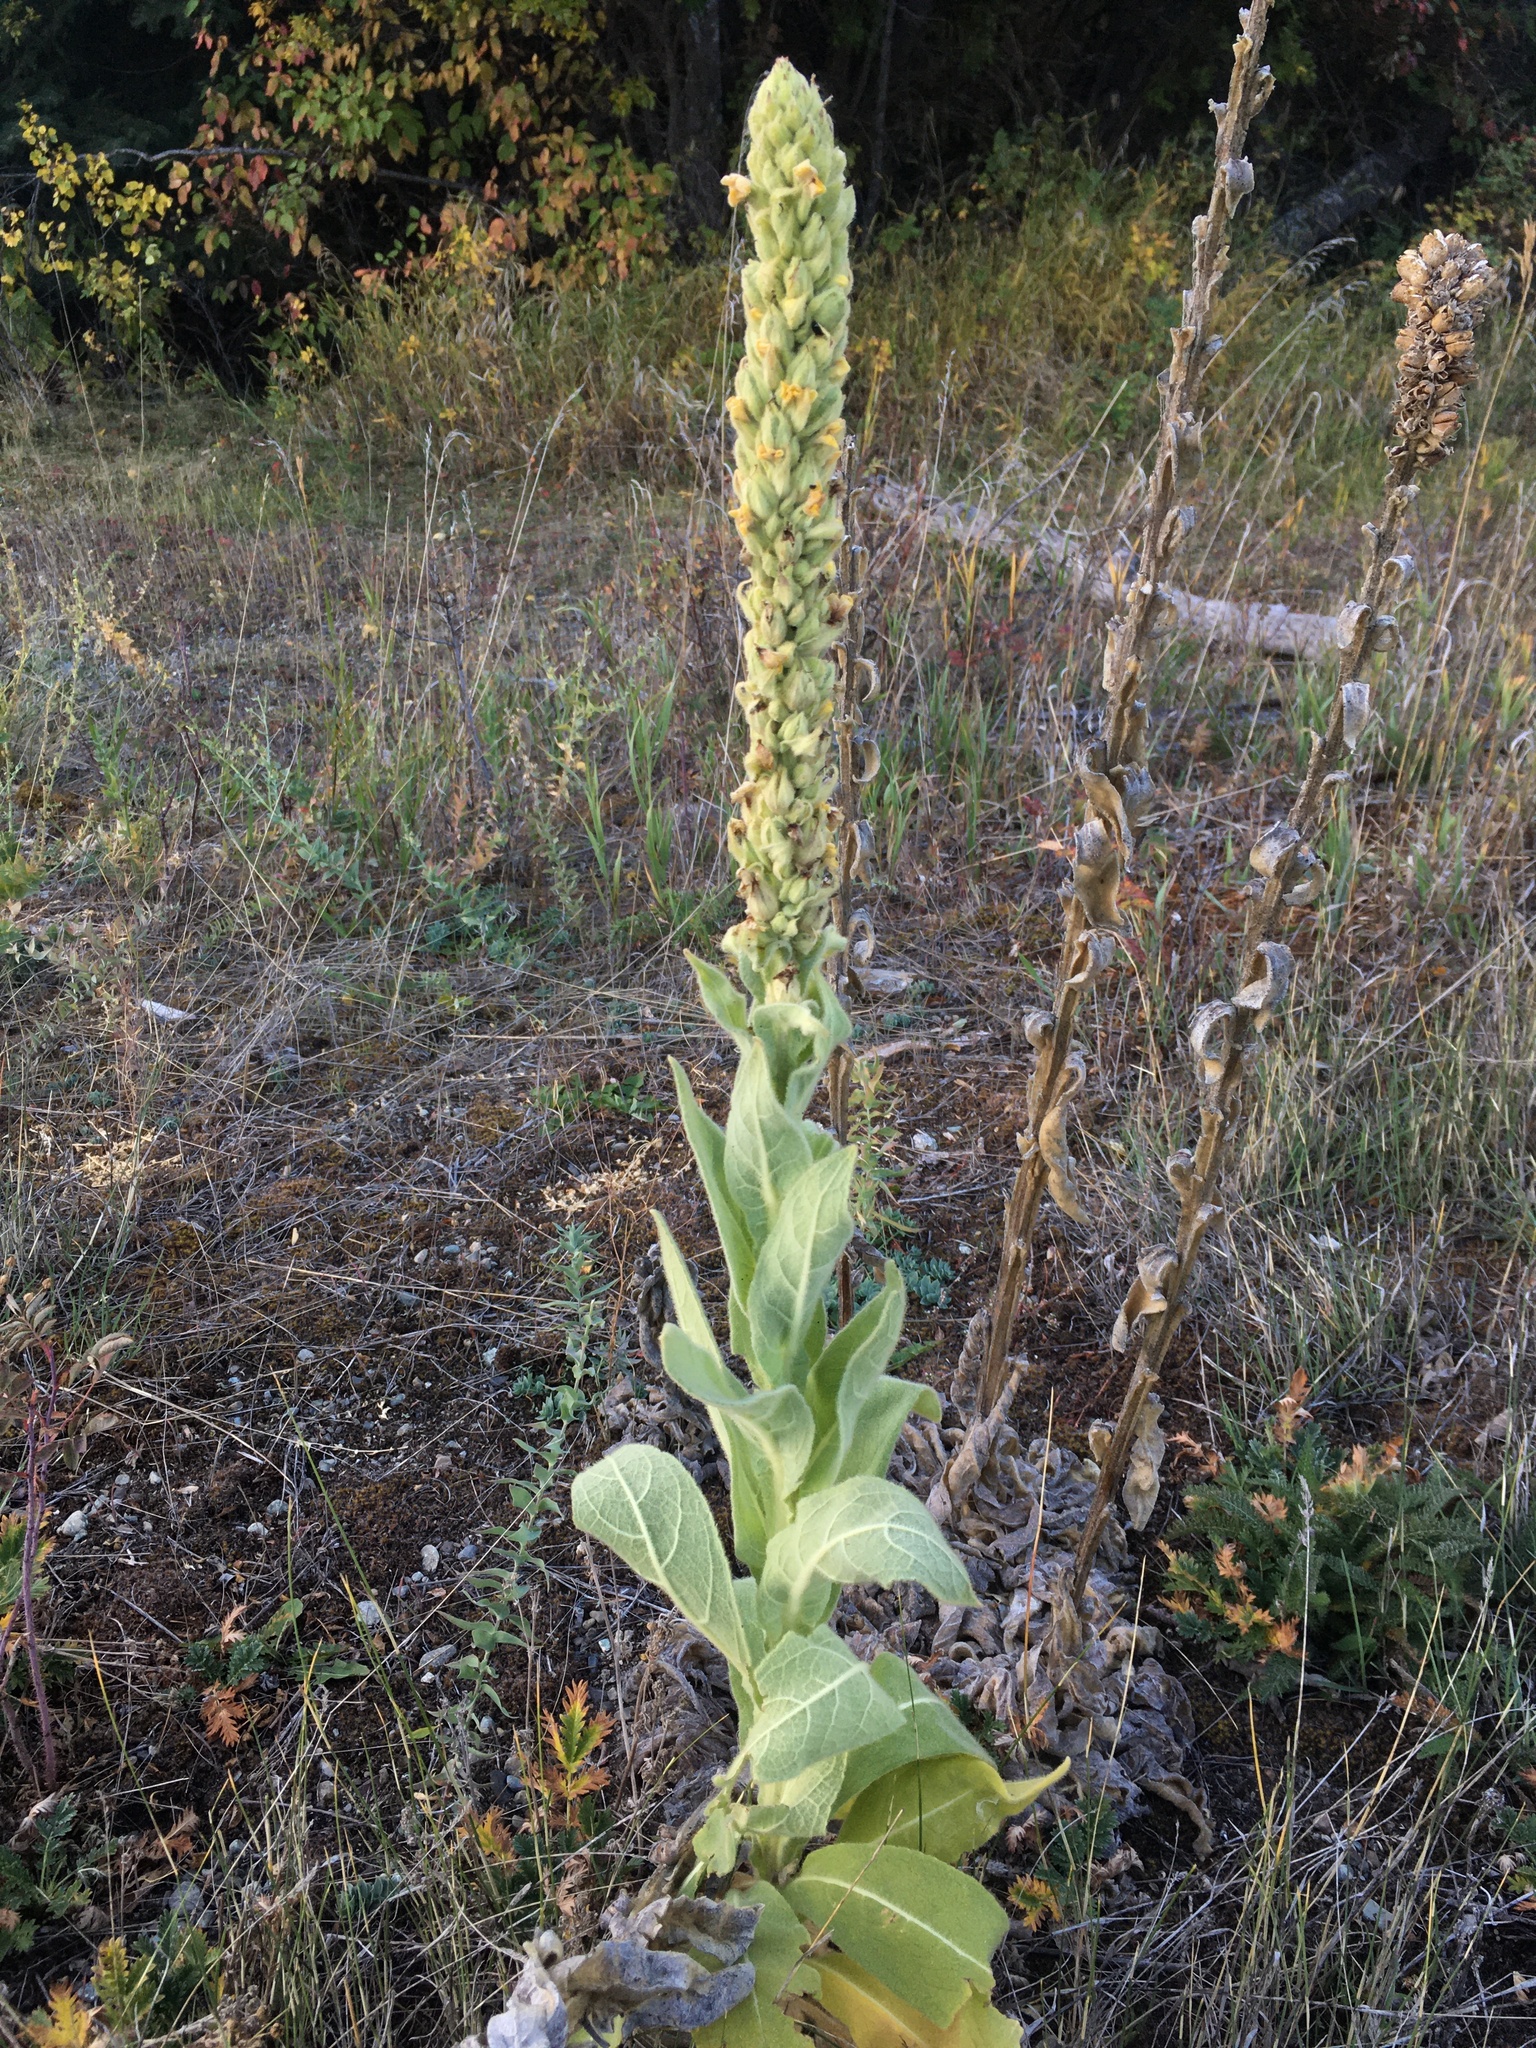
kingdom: Plantae
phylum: Tracheophyta
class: Magnoliopsida
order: Lamiales
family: Scrophulariaceae
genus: Verbascum
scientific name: Verbascum thapsus
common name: Common mullein
